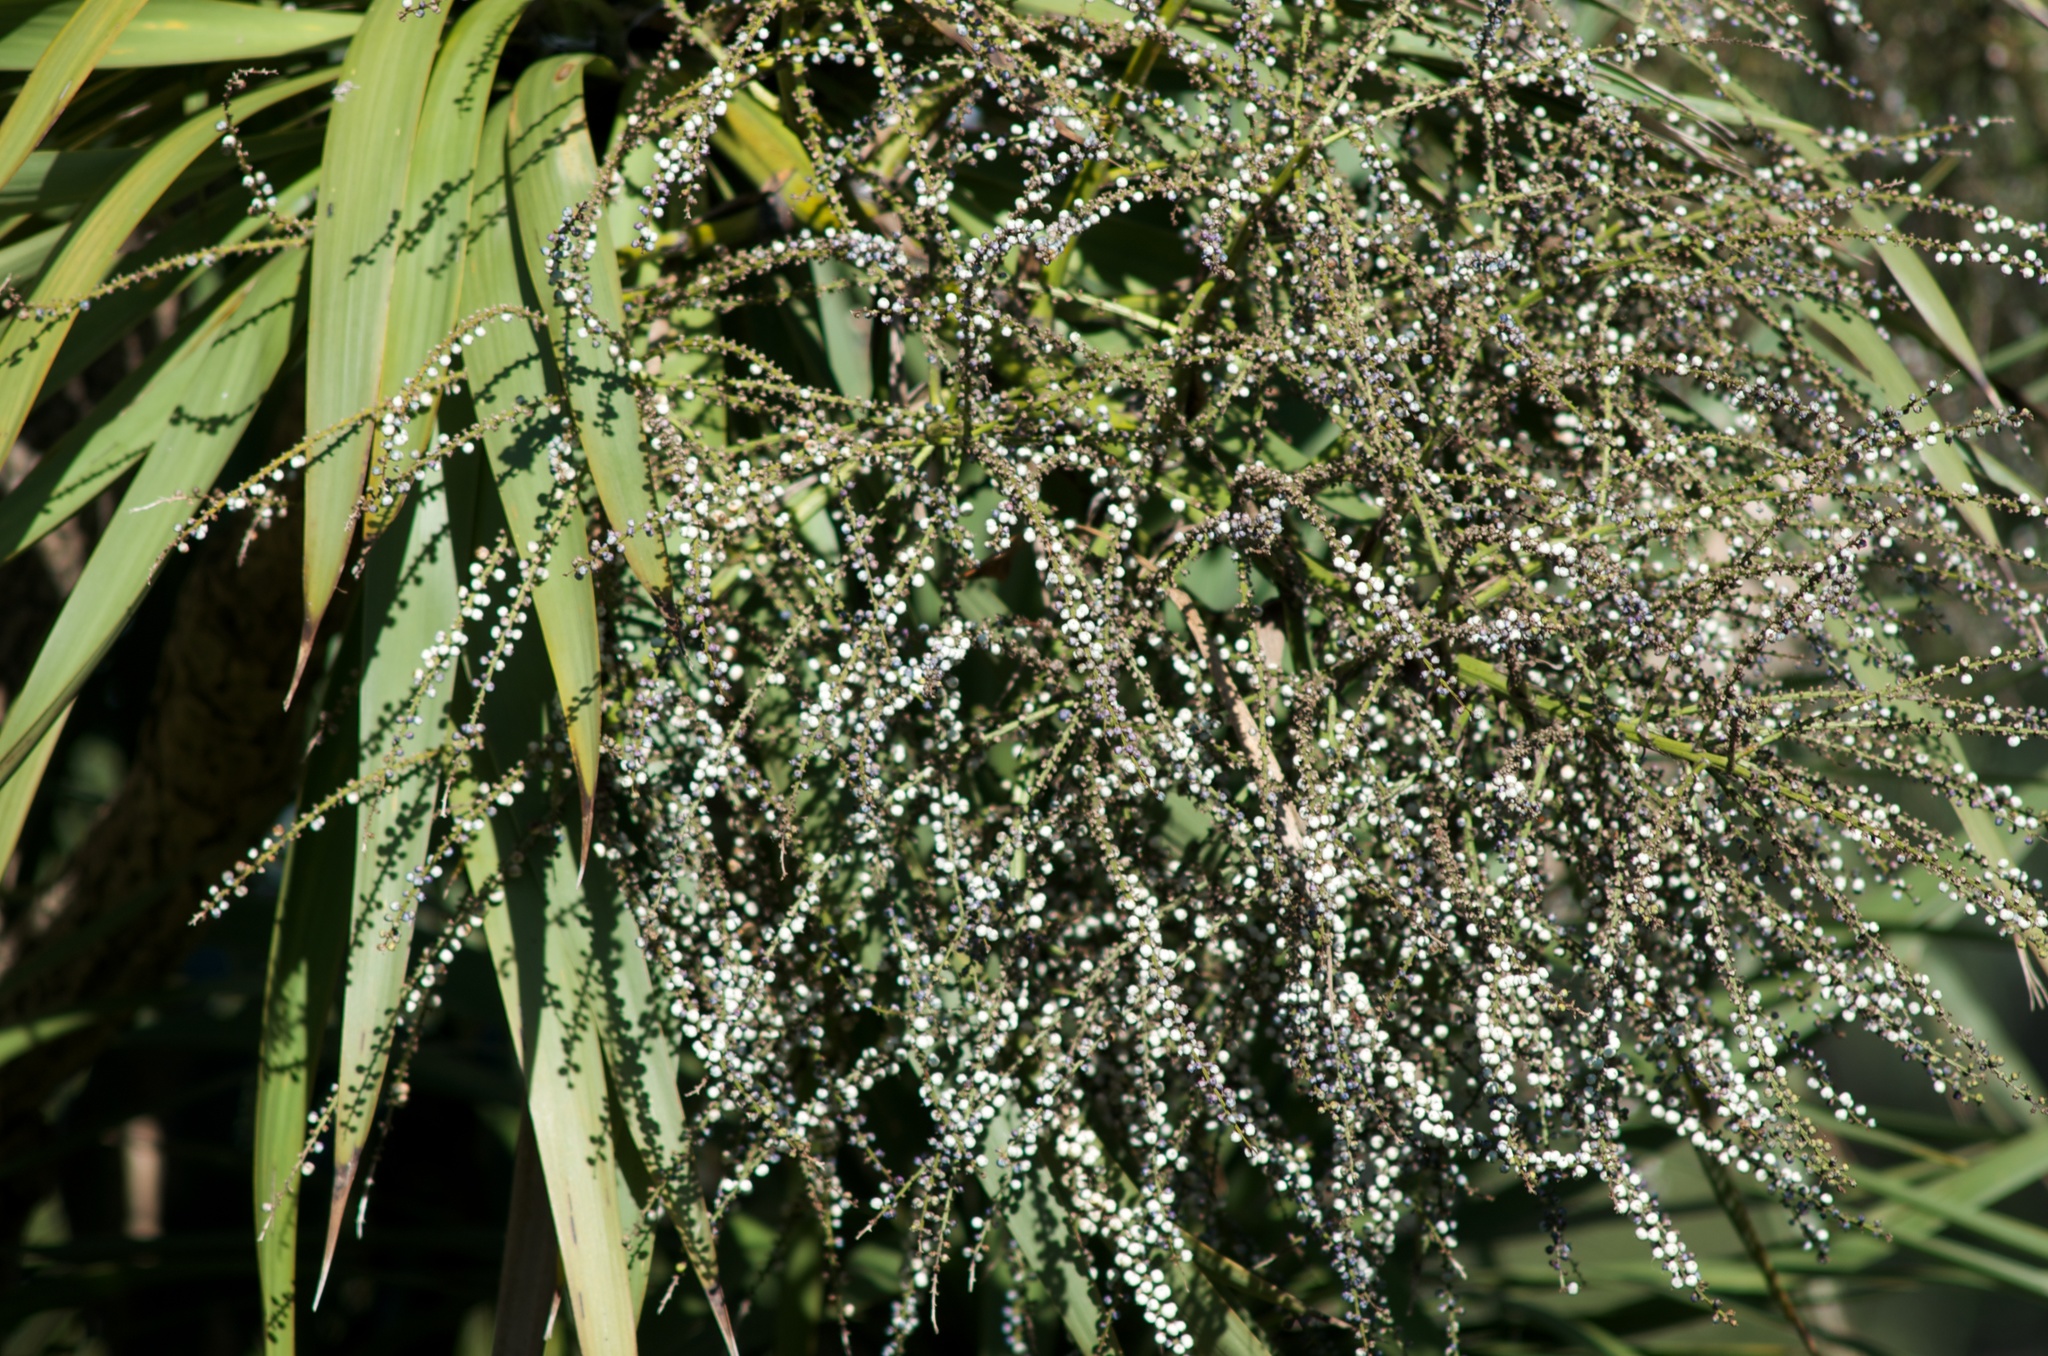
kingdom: Plantae
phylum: Tracheophyta
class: Liliopsida
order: Asparagales
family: Asparagaceae
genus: Cordyline
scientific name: Cordyline australis
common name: Cabbage-palm
